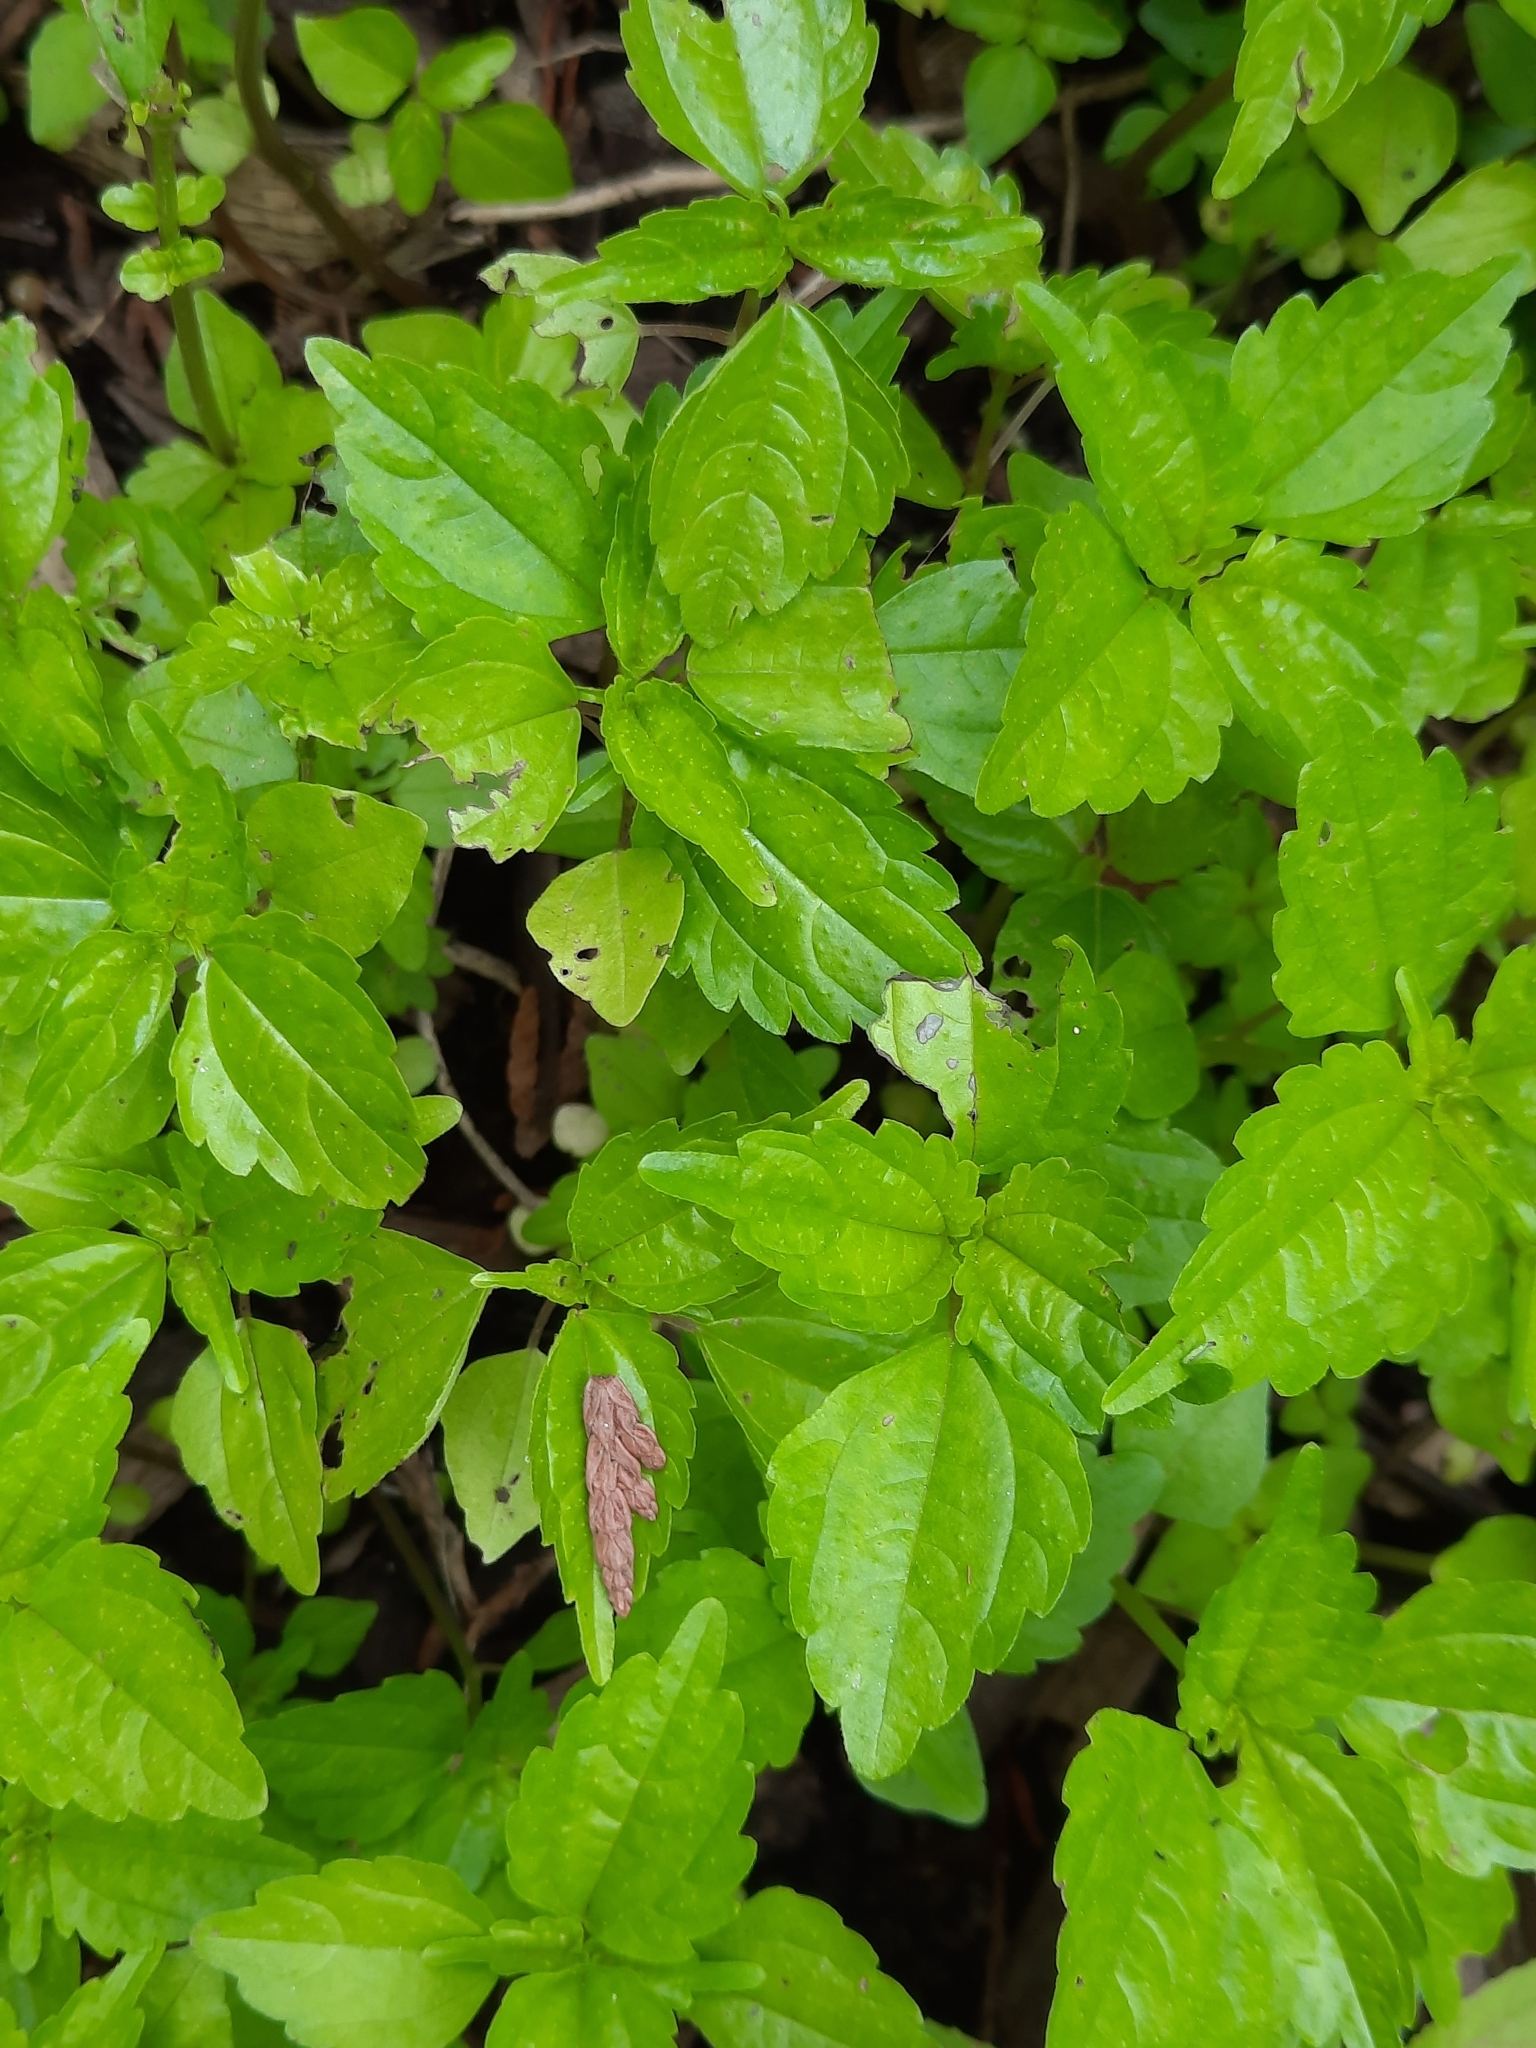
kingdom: Plantae
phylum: Tracheophyta
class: Magnoliopsida
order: Rosales
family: Urticaceae
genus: Pilea
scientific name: Pilea pumila
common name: Clearweed
